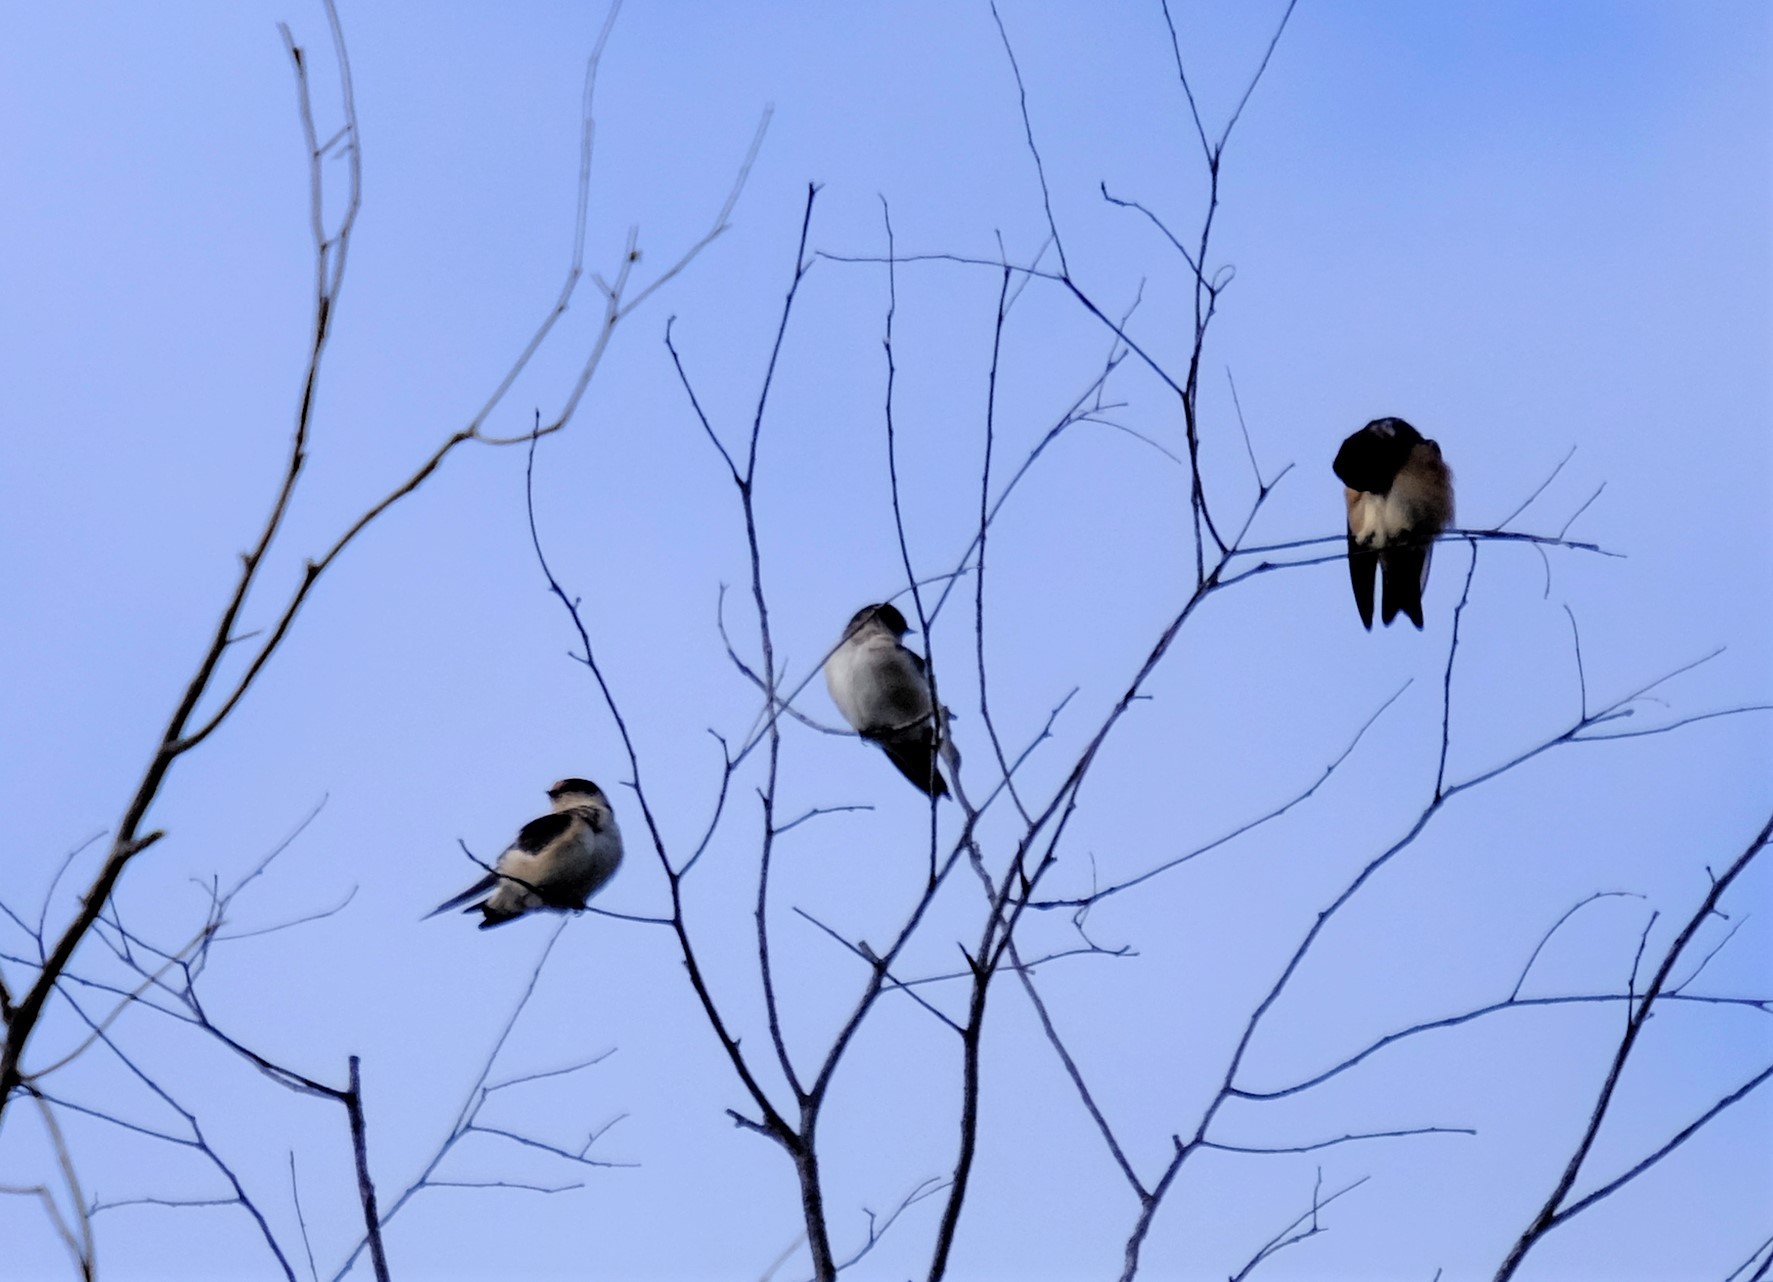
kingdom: Animalia
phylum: Chordata
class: Aves
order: Passeriformes
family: Hirundinidae
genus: Petrochelidon
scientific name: Petrochelidon nigricans
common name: Tree martin
